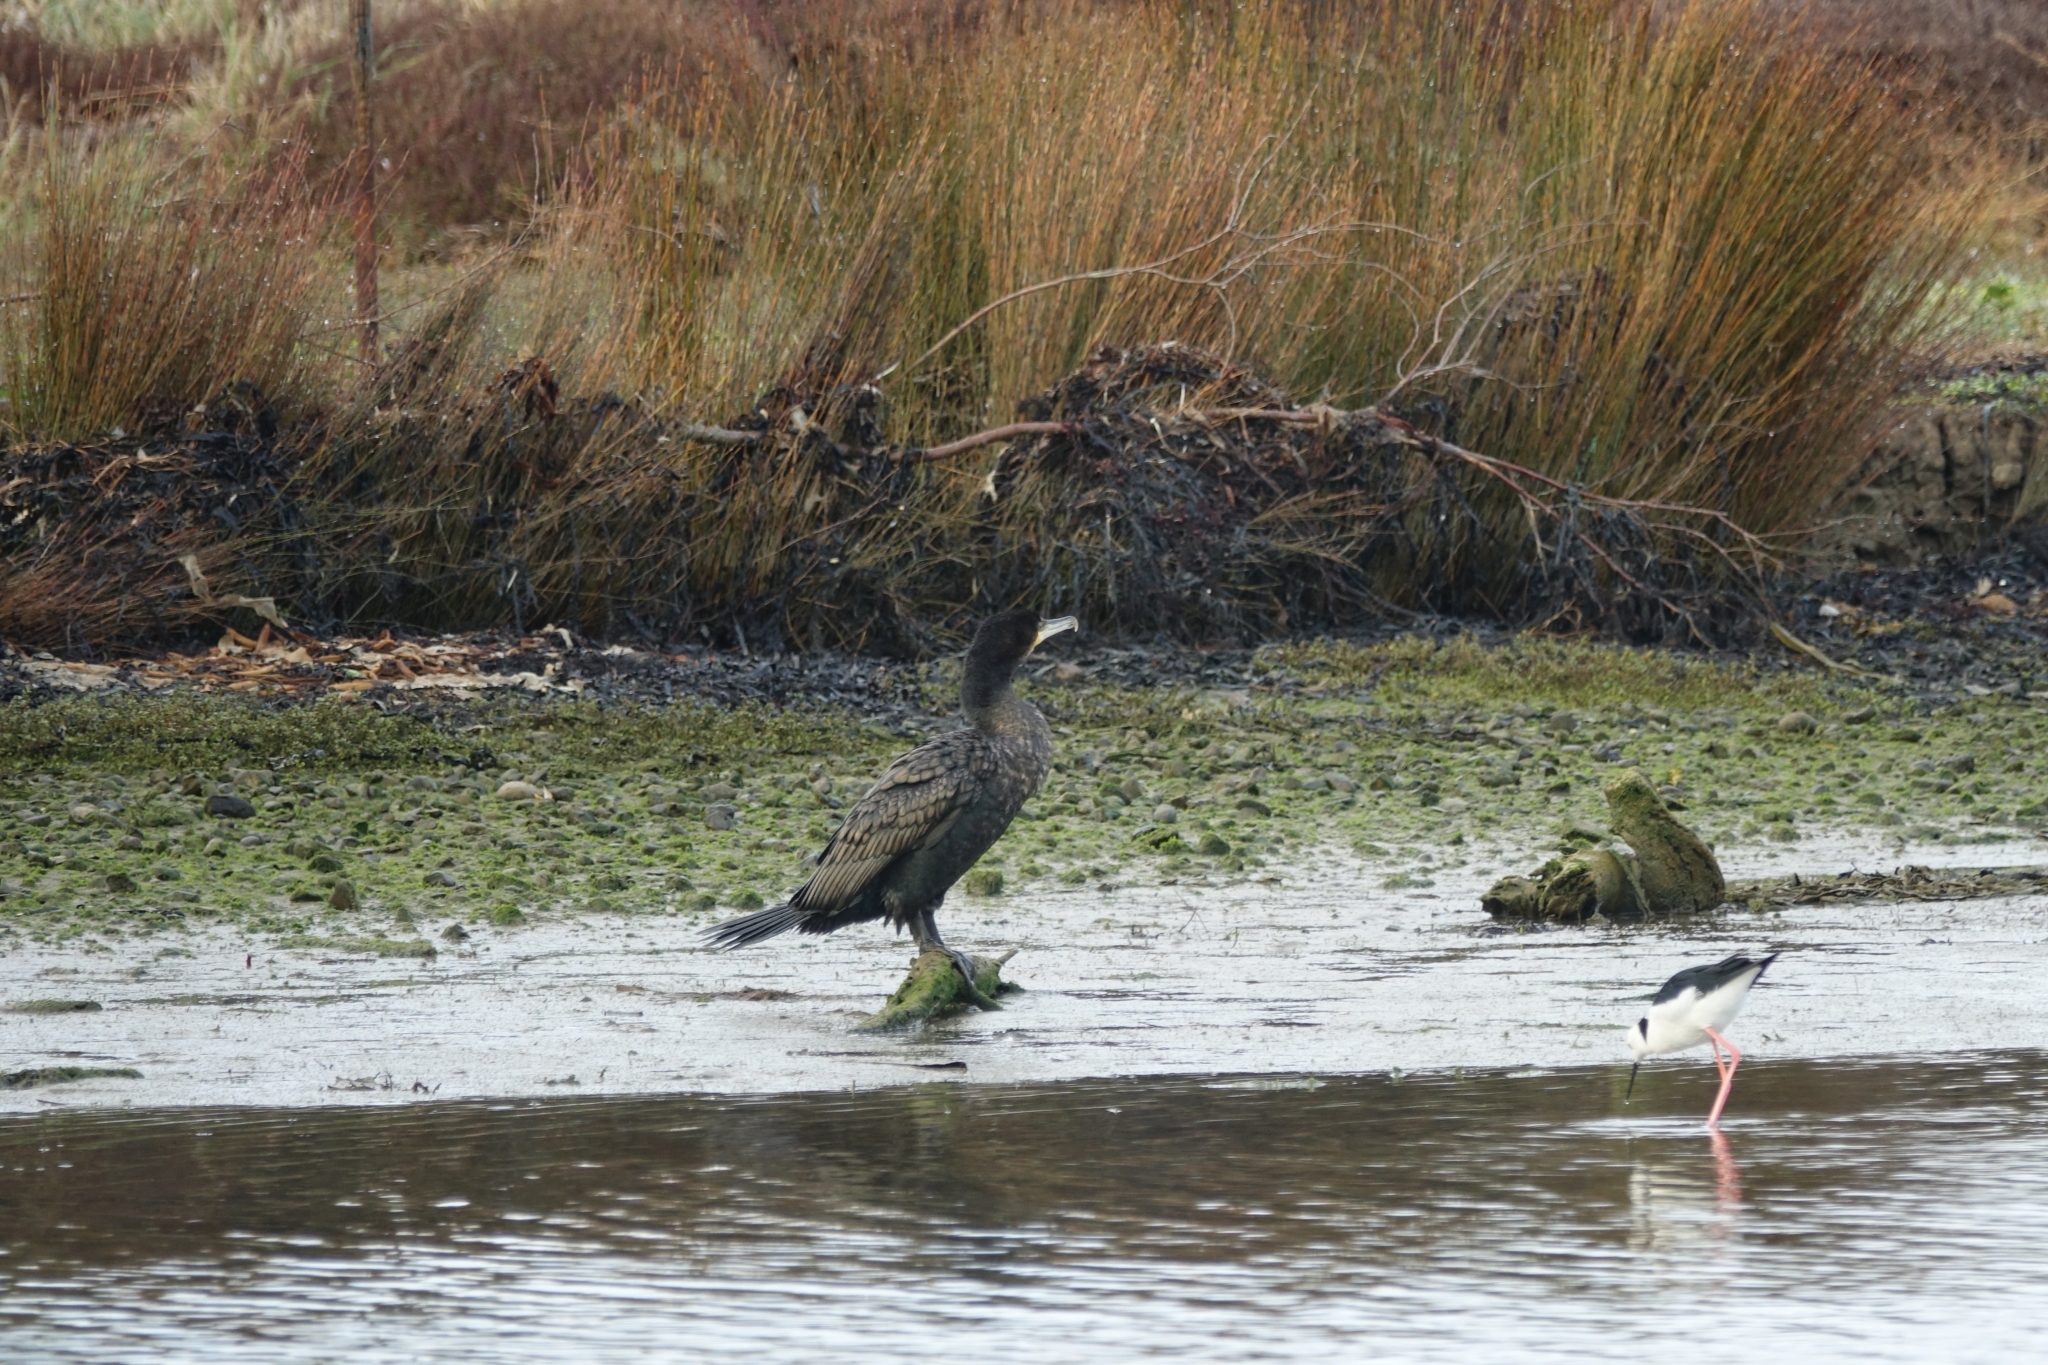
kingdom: Animalia
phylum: Chordata
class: Aves
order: Suliformes
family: Phalacrocoracidae
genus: Phalacrocorax
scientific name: Phalacrocorax carbo
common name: Great cormorant
